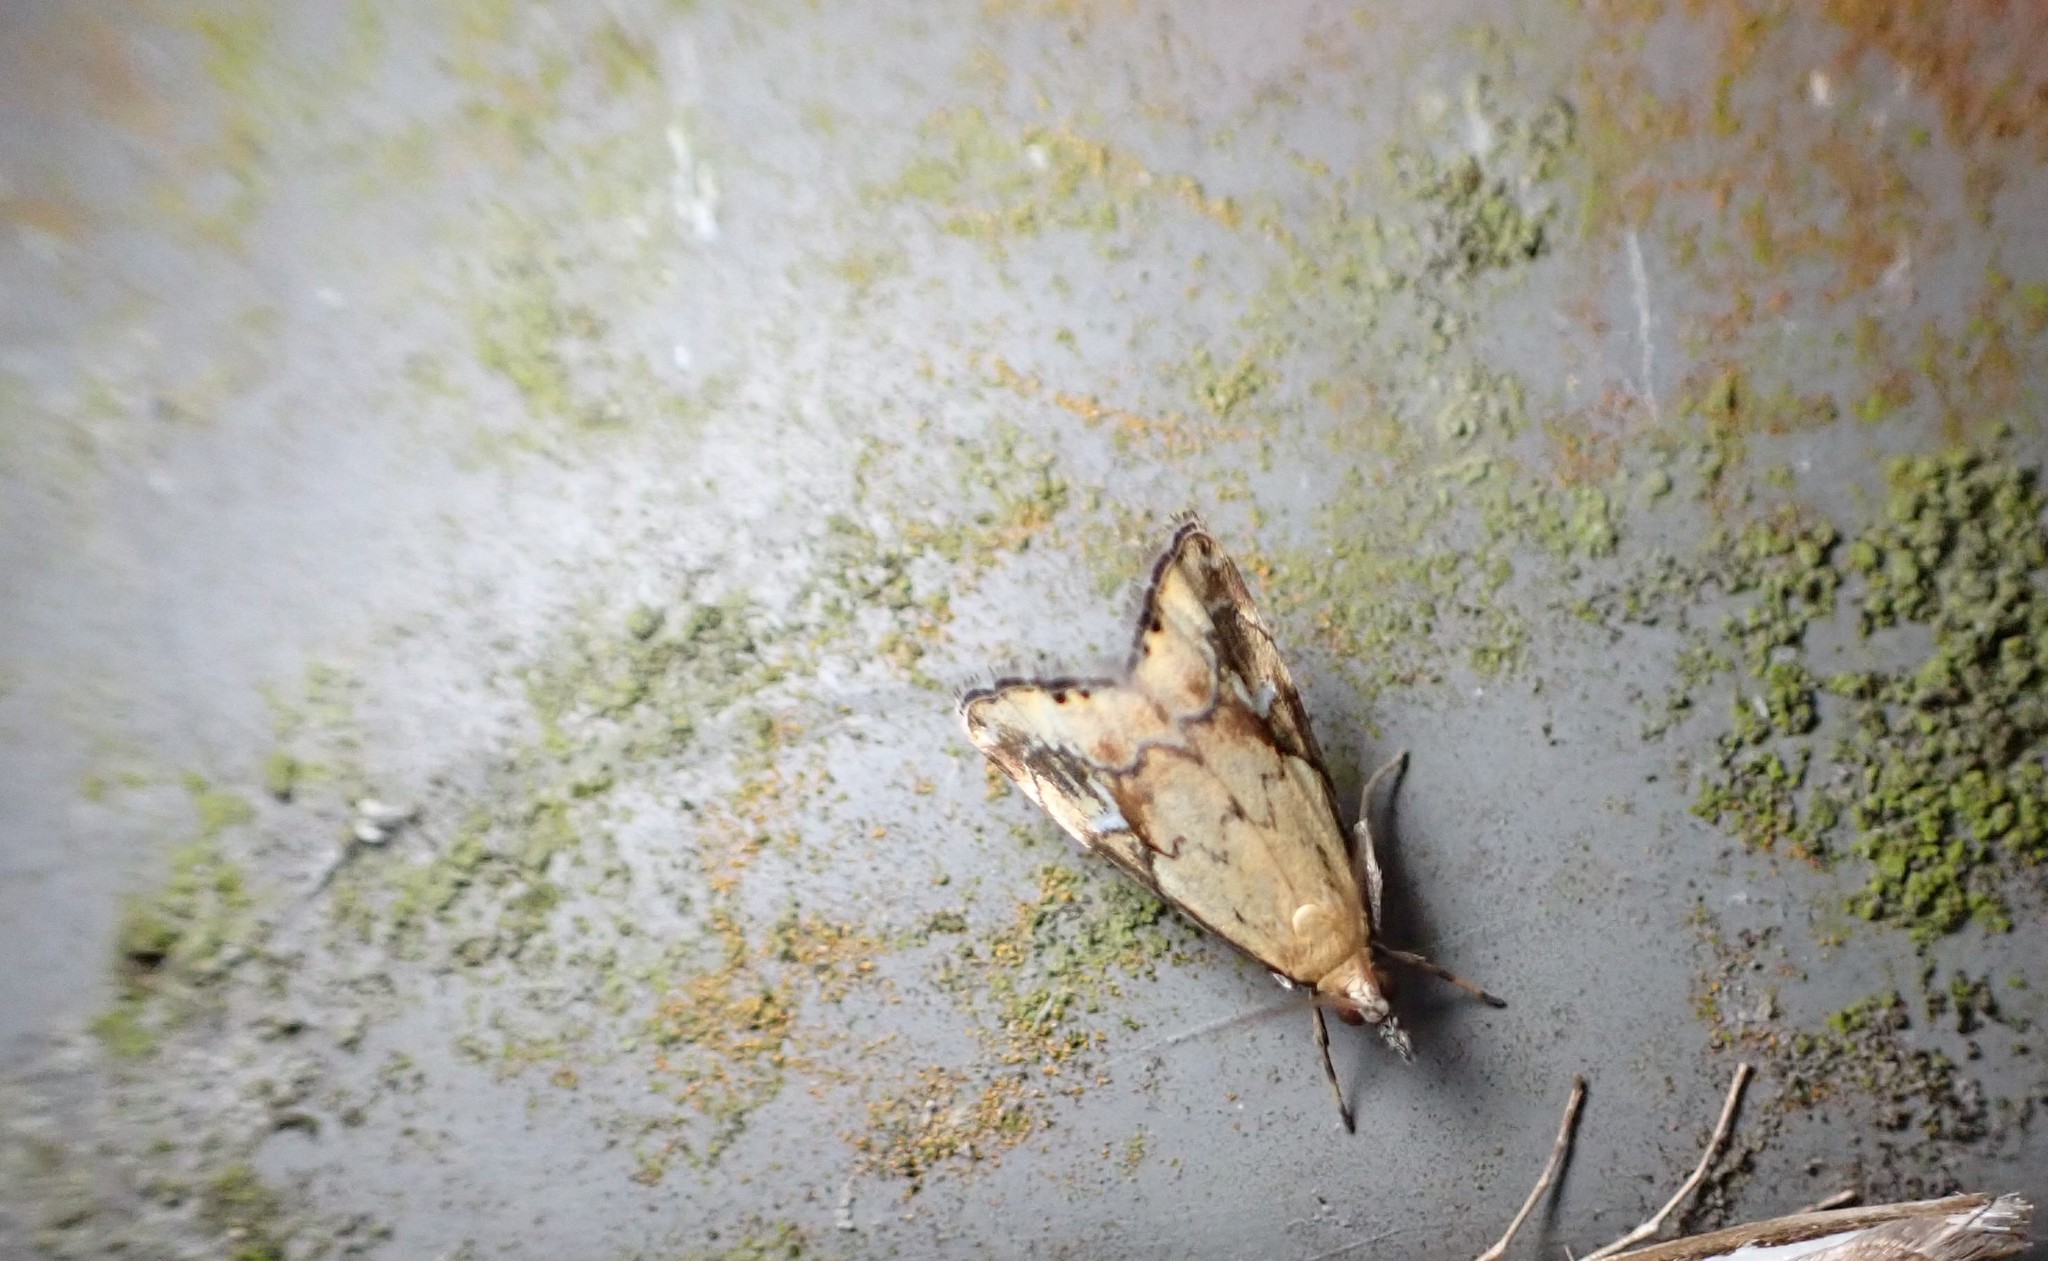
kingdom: Animalia
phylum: Arthropoda
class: Insecta
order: Lepidoptera
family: Crambidae
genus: Glaucocharis
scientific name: Glaucocharis lepidella
